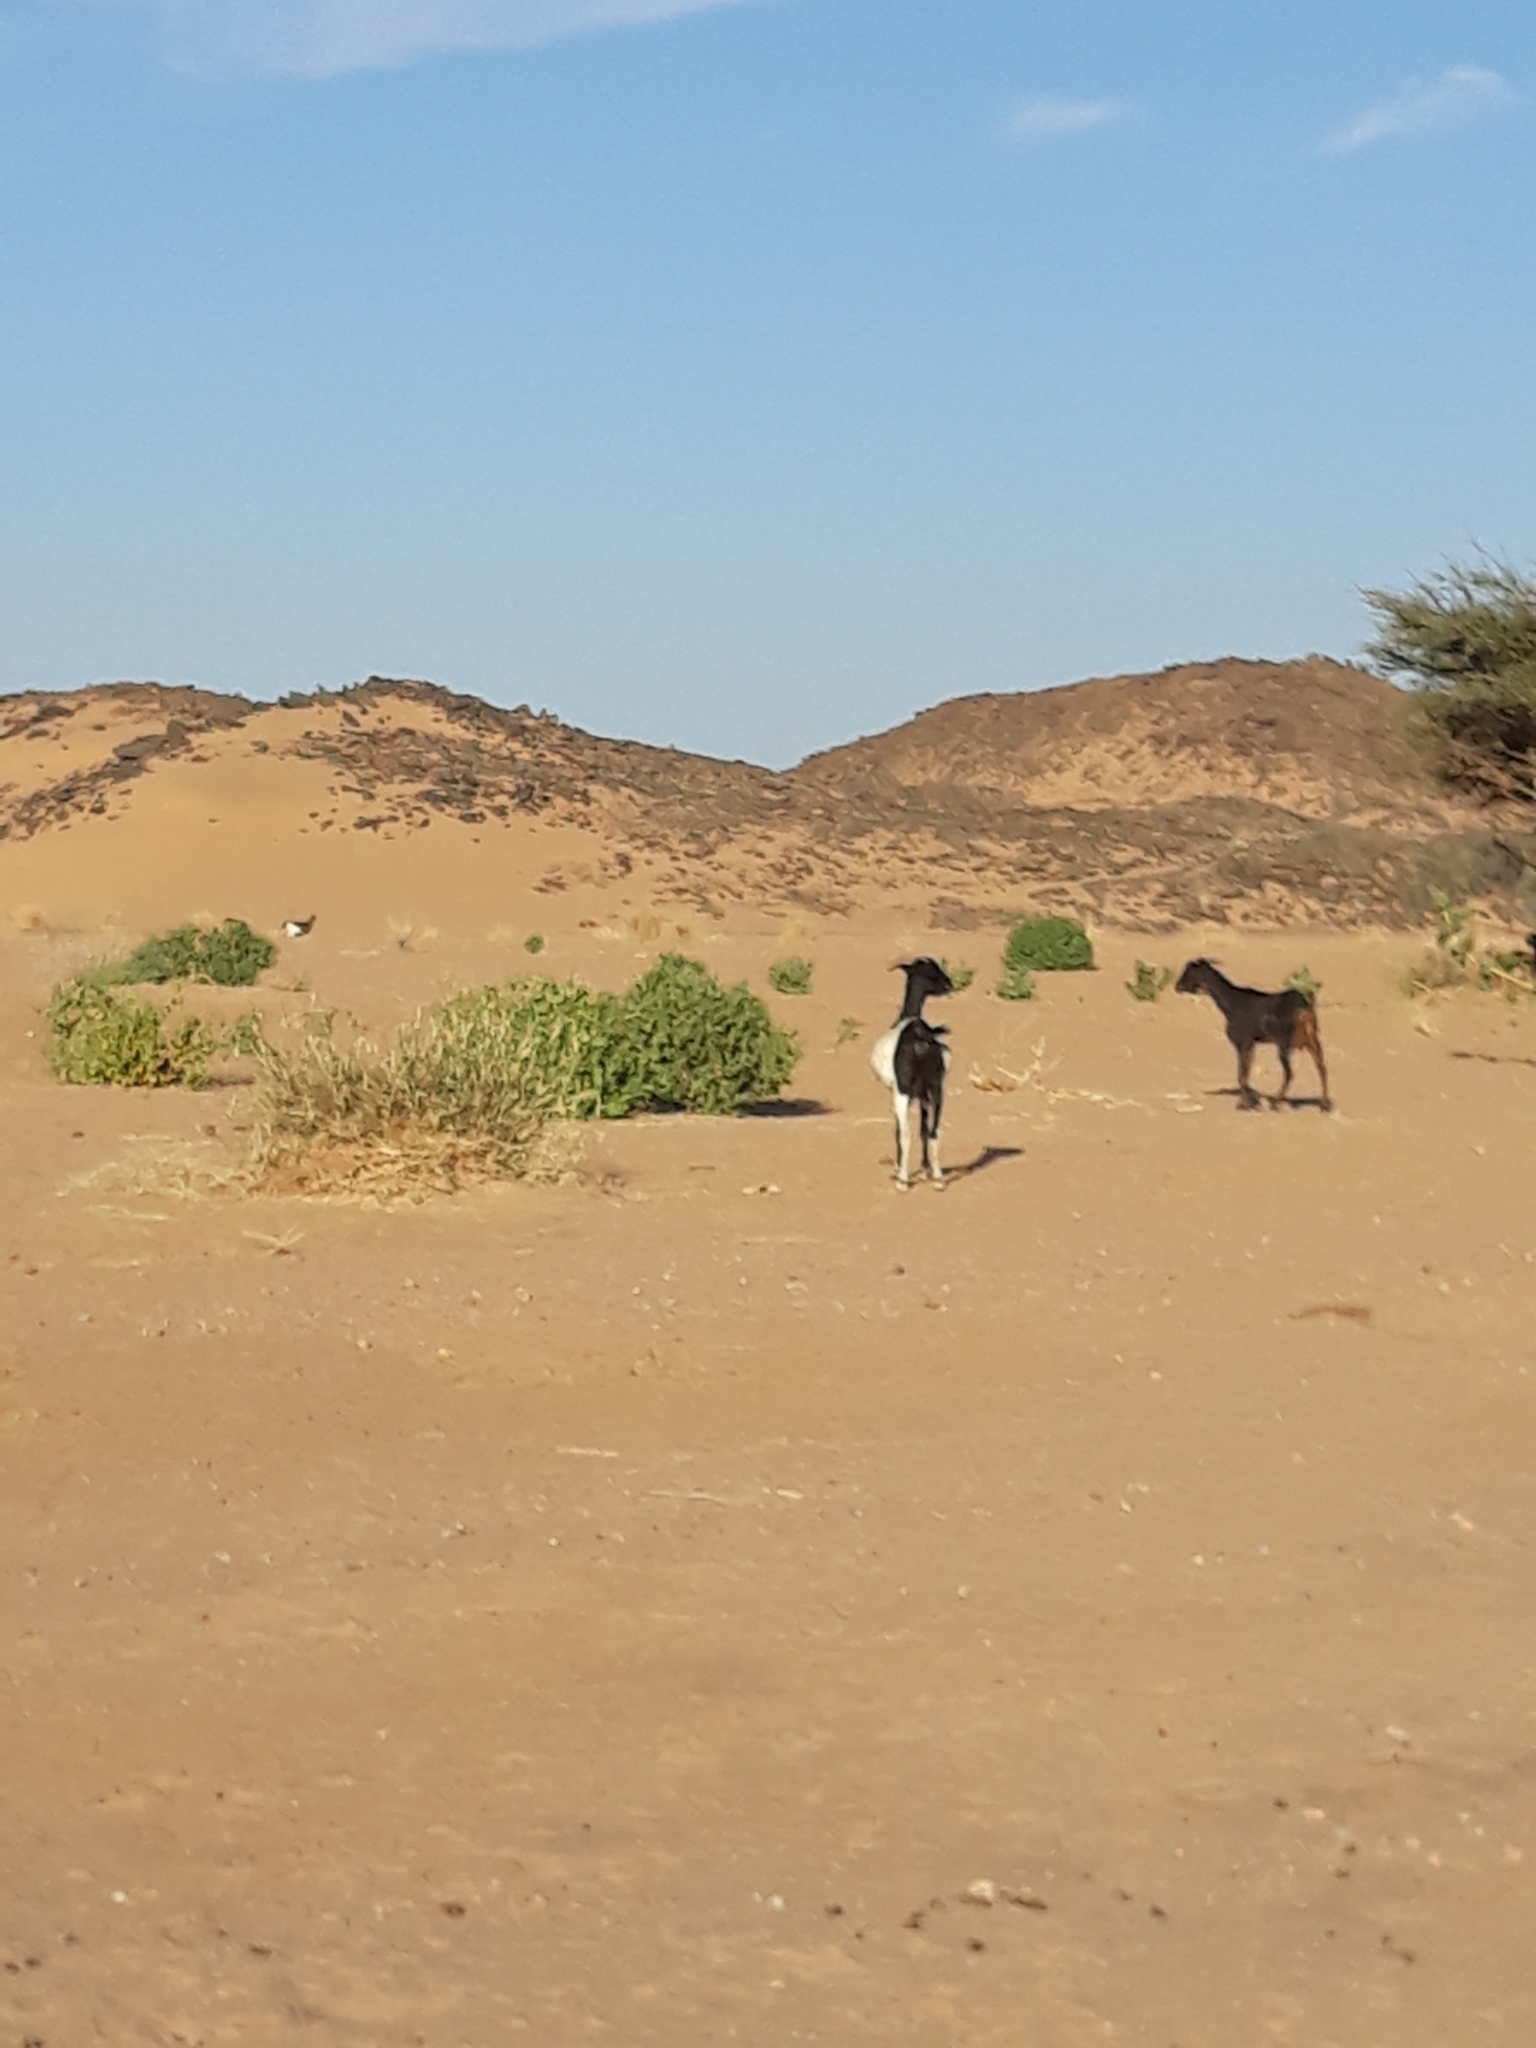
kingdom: Animalia
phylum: Chordata
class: Mammalia
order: Artiodactyla
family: Bovidae
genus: Capra
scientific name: Capra hircus
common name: Domestic goat
